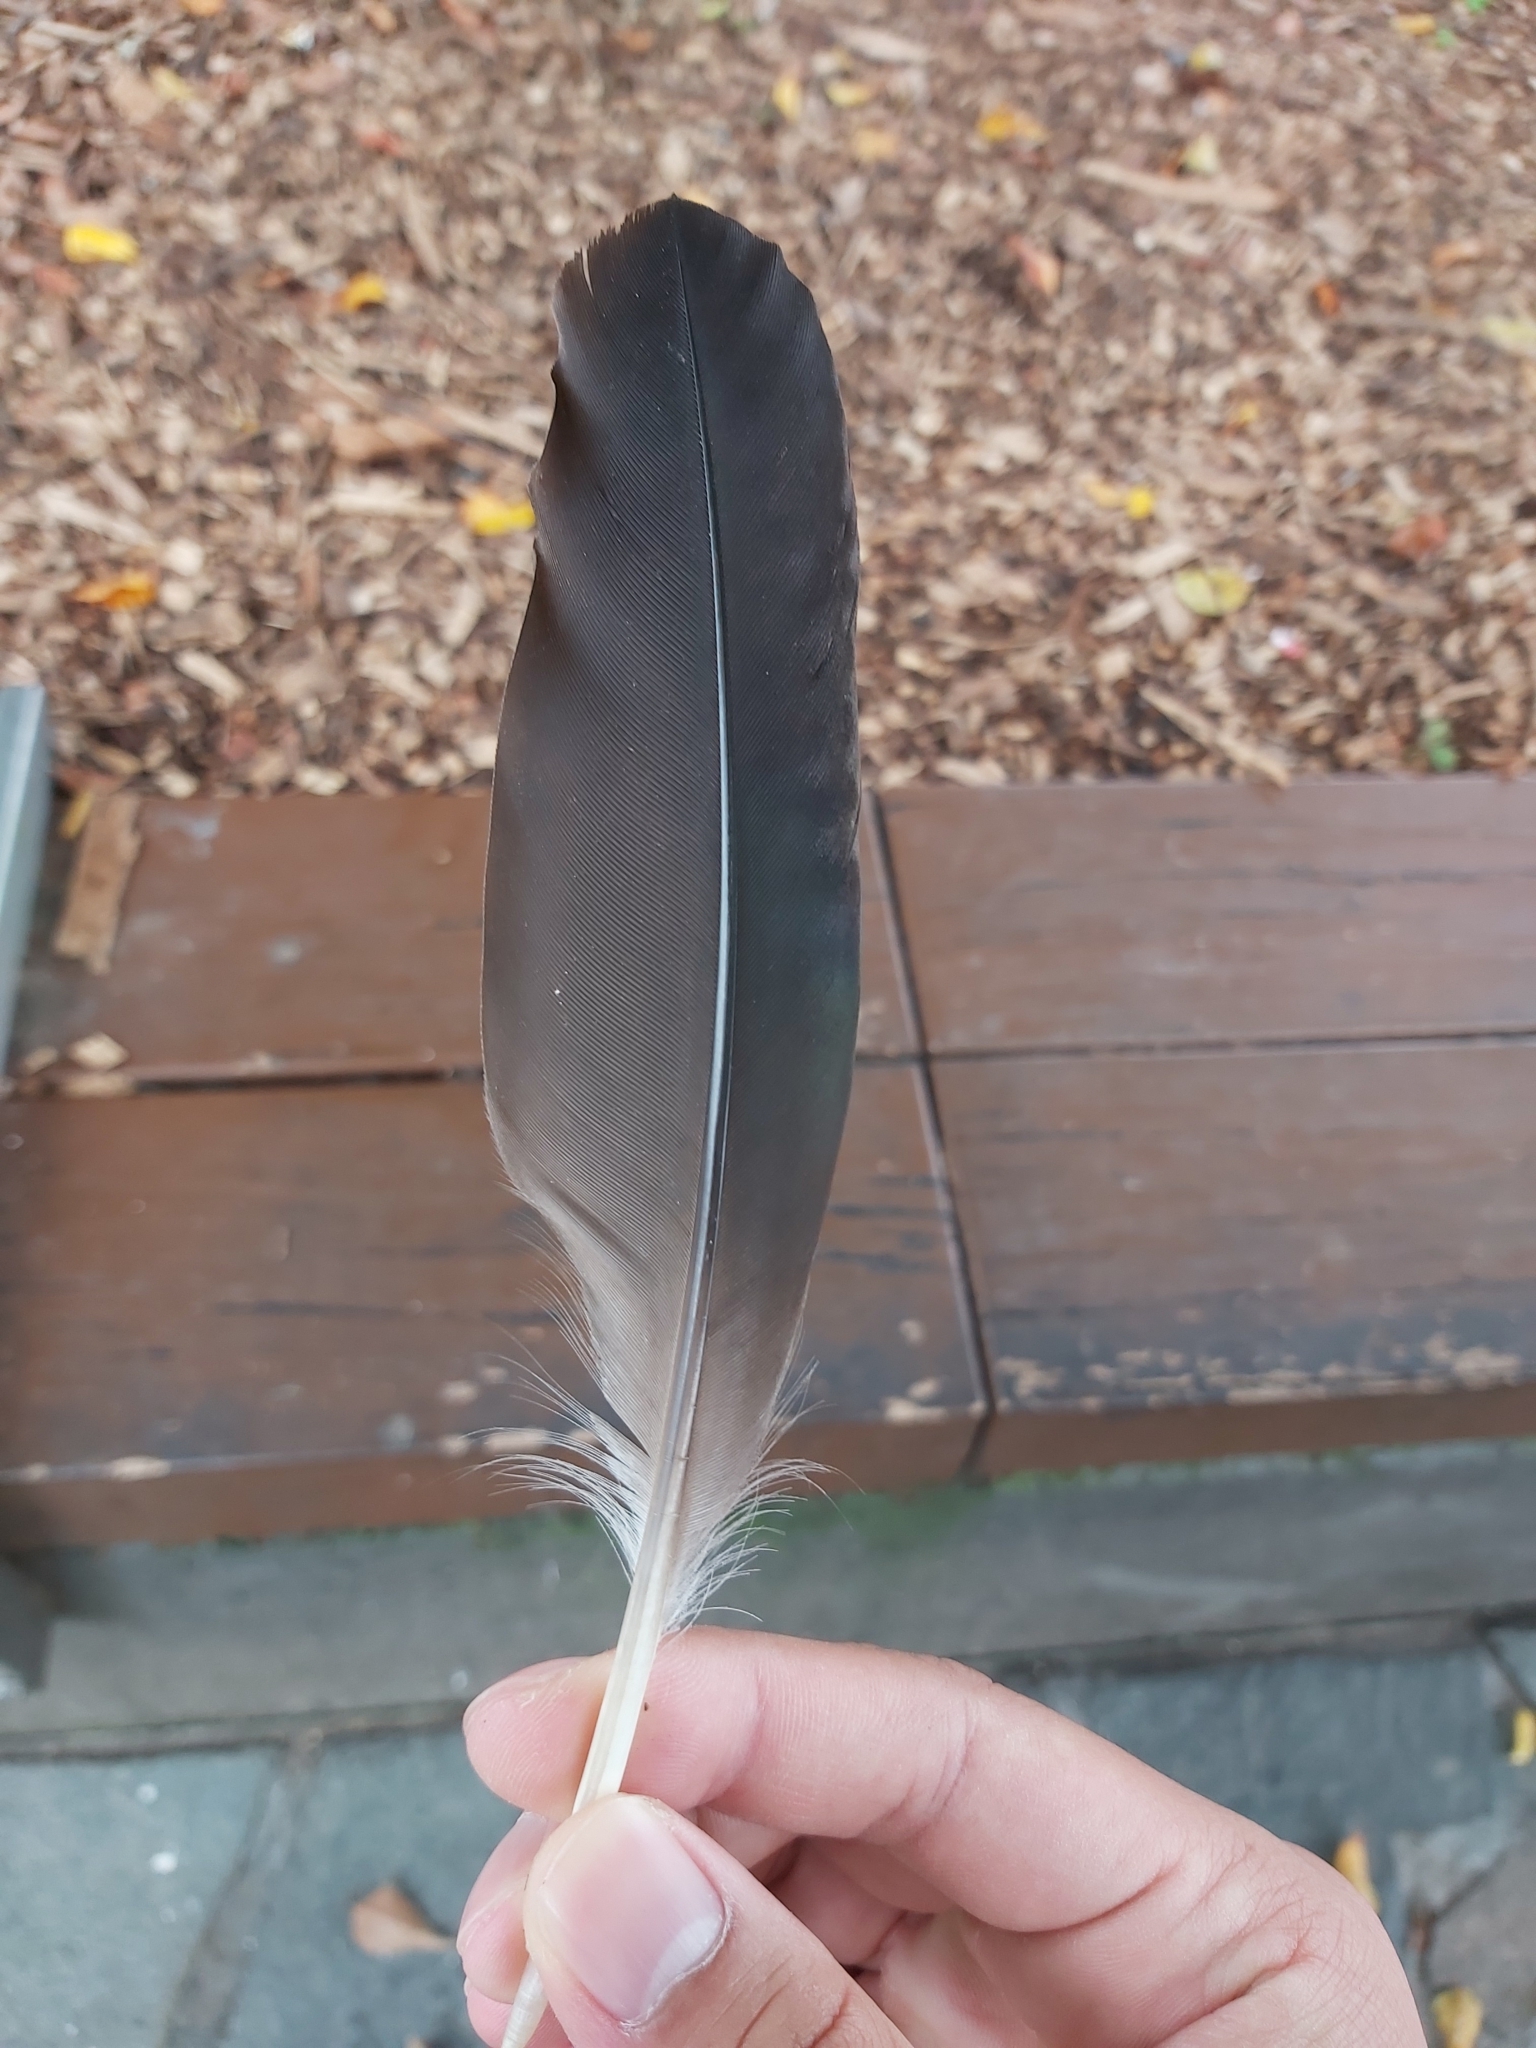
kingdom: Animalia
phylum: Chordata
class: Aves
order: Pelecaniformes
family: Threskiornithidae
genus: Threskiornis
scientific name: Threskiornis spinicollis
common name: Straw-necked ibis
